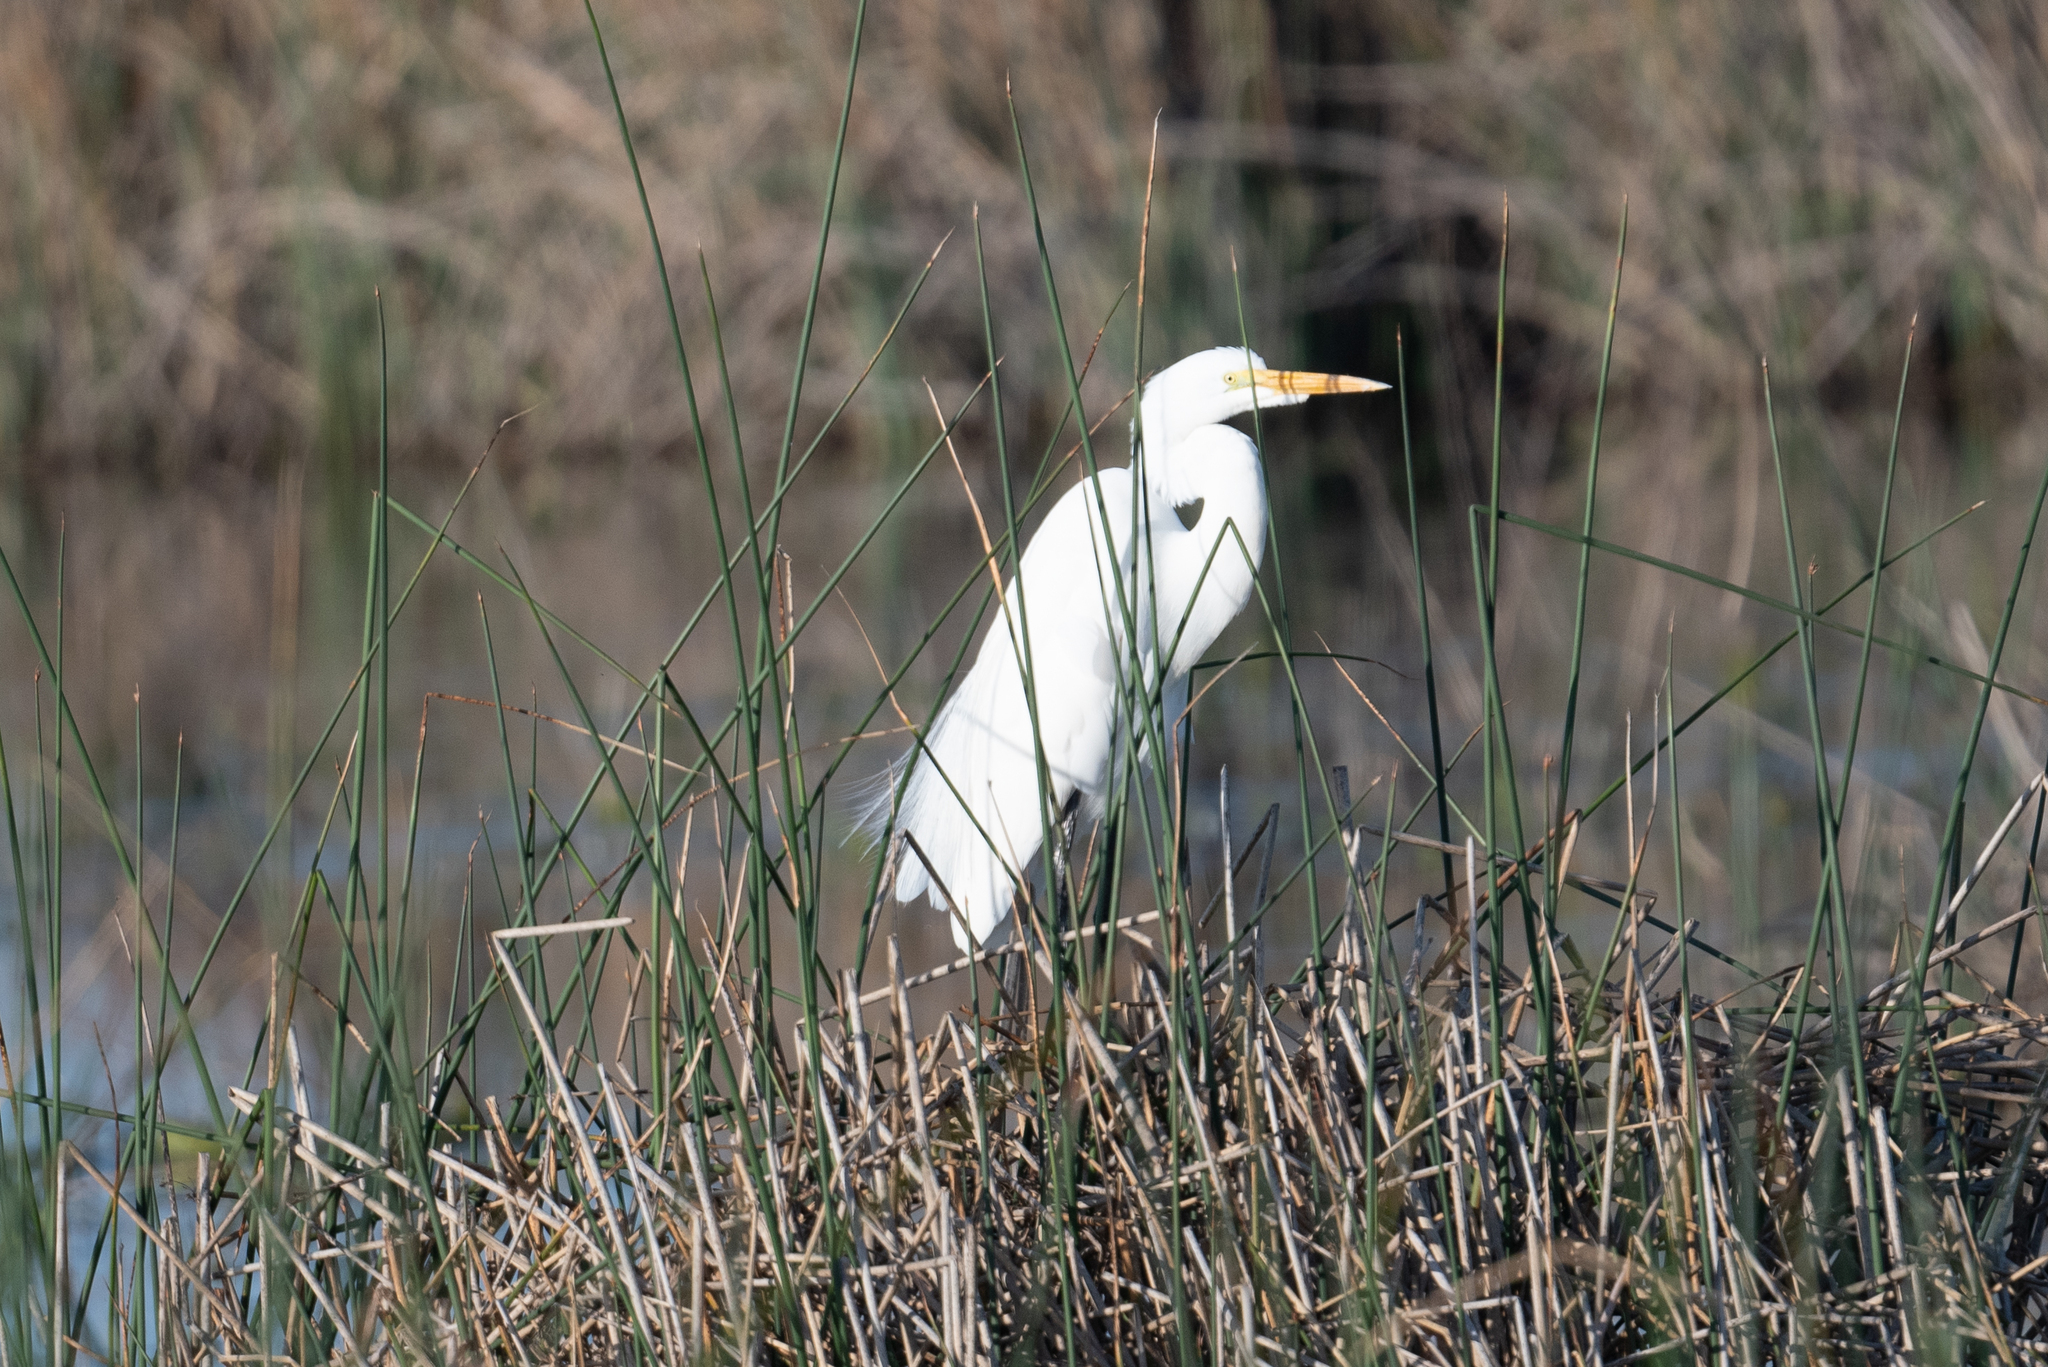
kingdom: Animalia
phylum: Chordata
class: Aves
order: Pelecaniformes
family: Ardeidae
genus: Ardea
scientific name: Ardea alba
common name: Great egret
